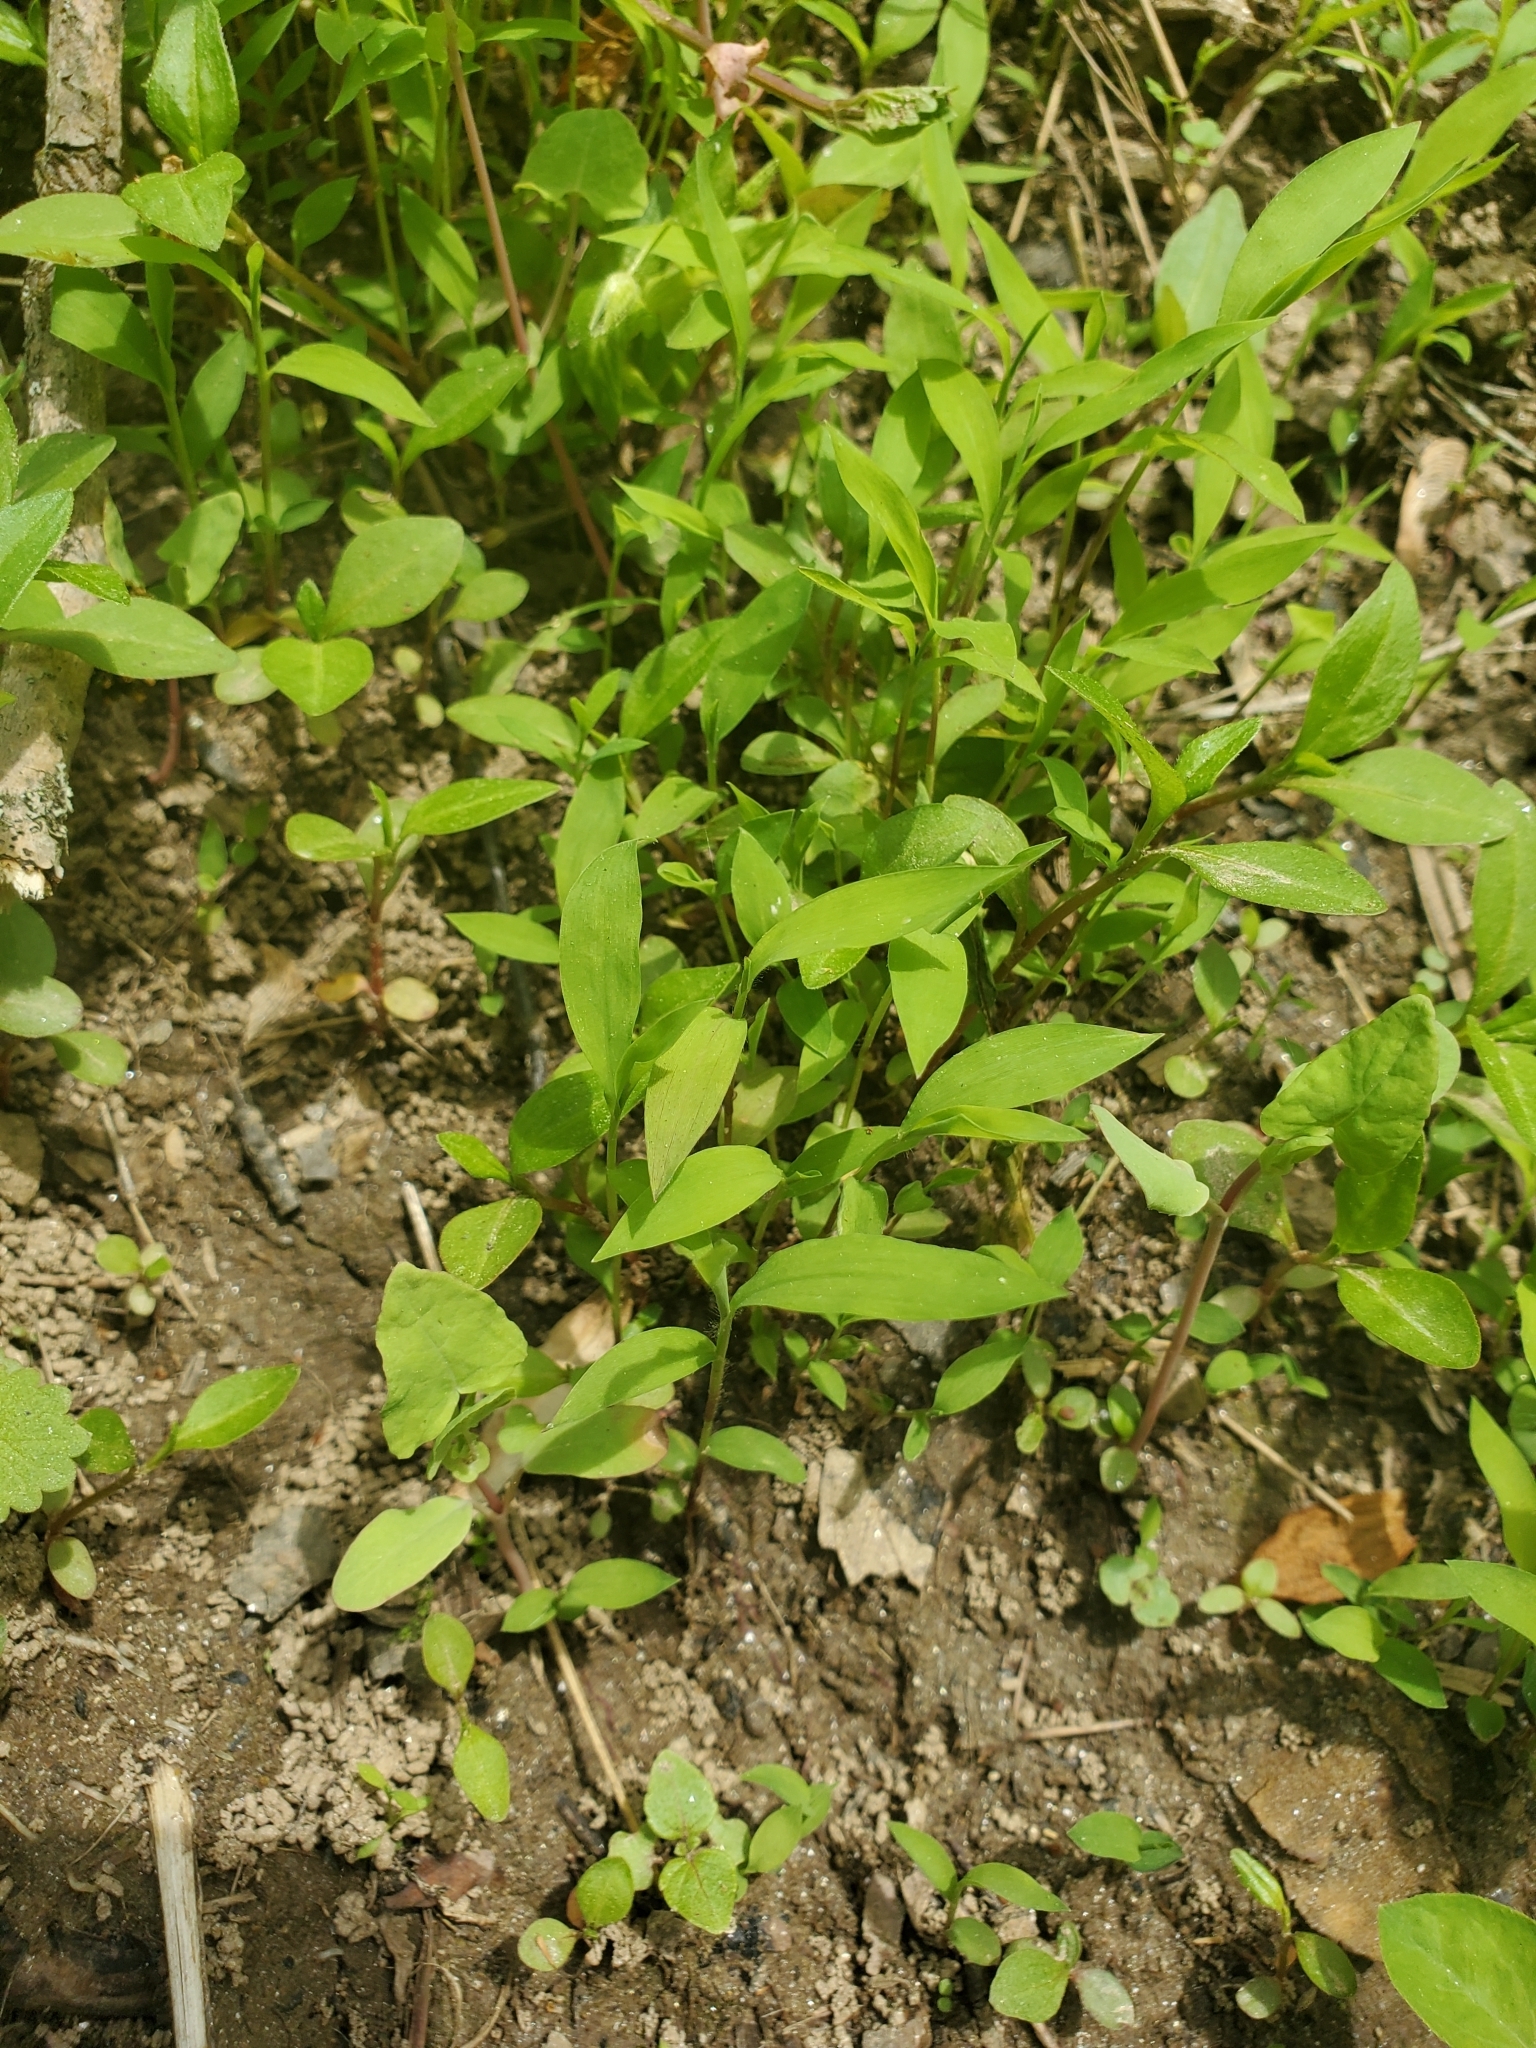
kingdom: Plantae
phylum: Tracheophyta
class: Liliopsida
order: Poales
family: Poaceae
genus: Microstegium
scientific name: Microstegium vimineum
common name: Japanese stiltgrass
